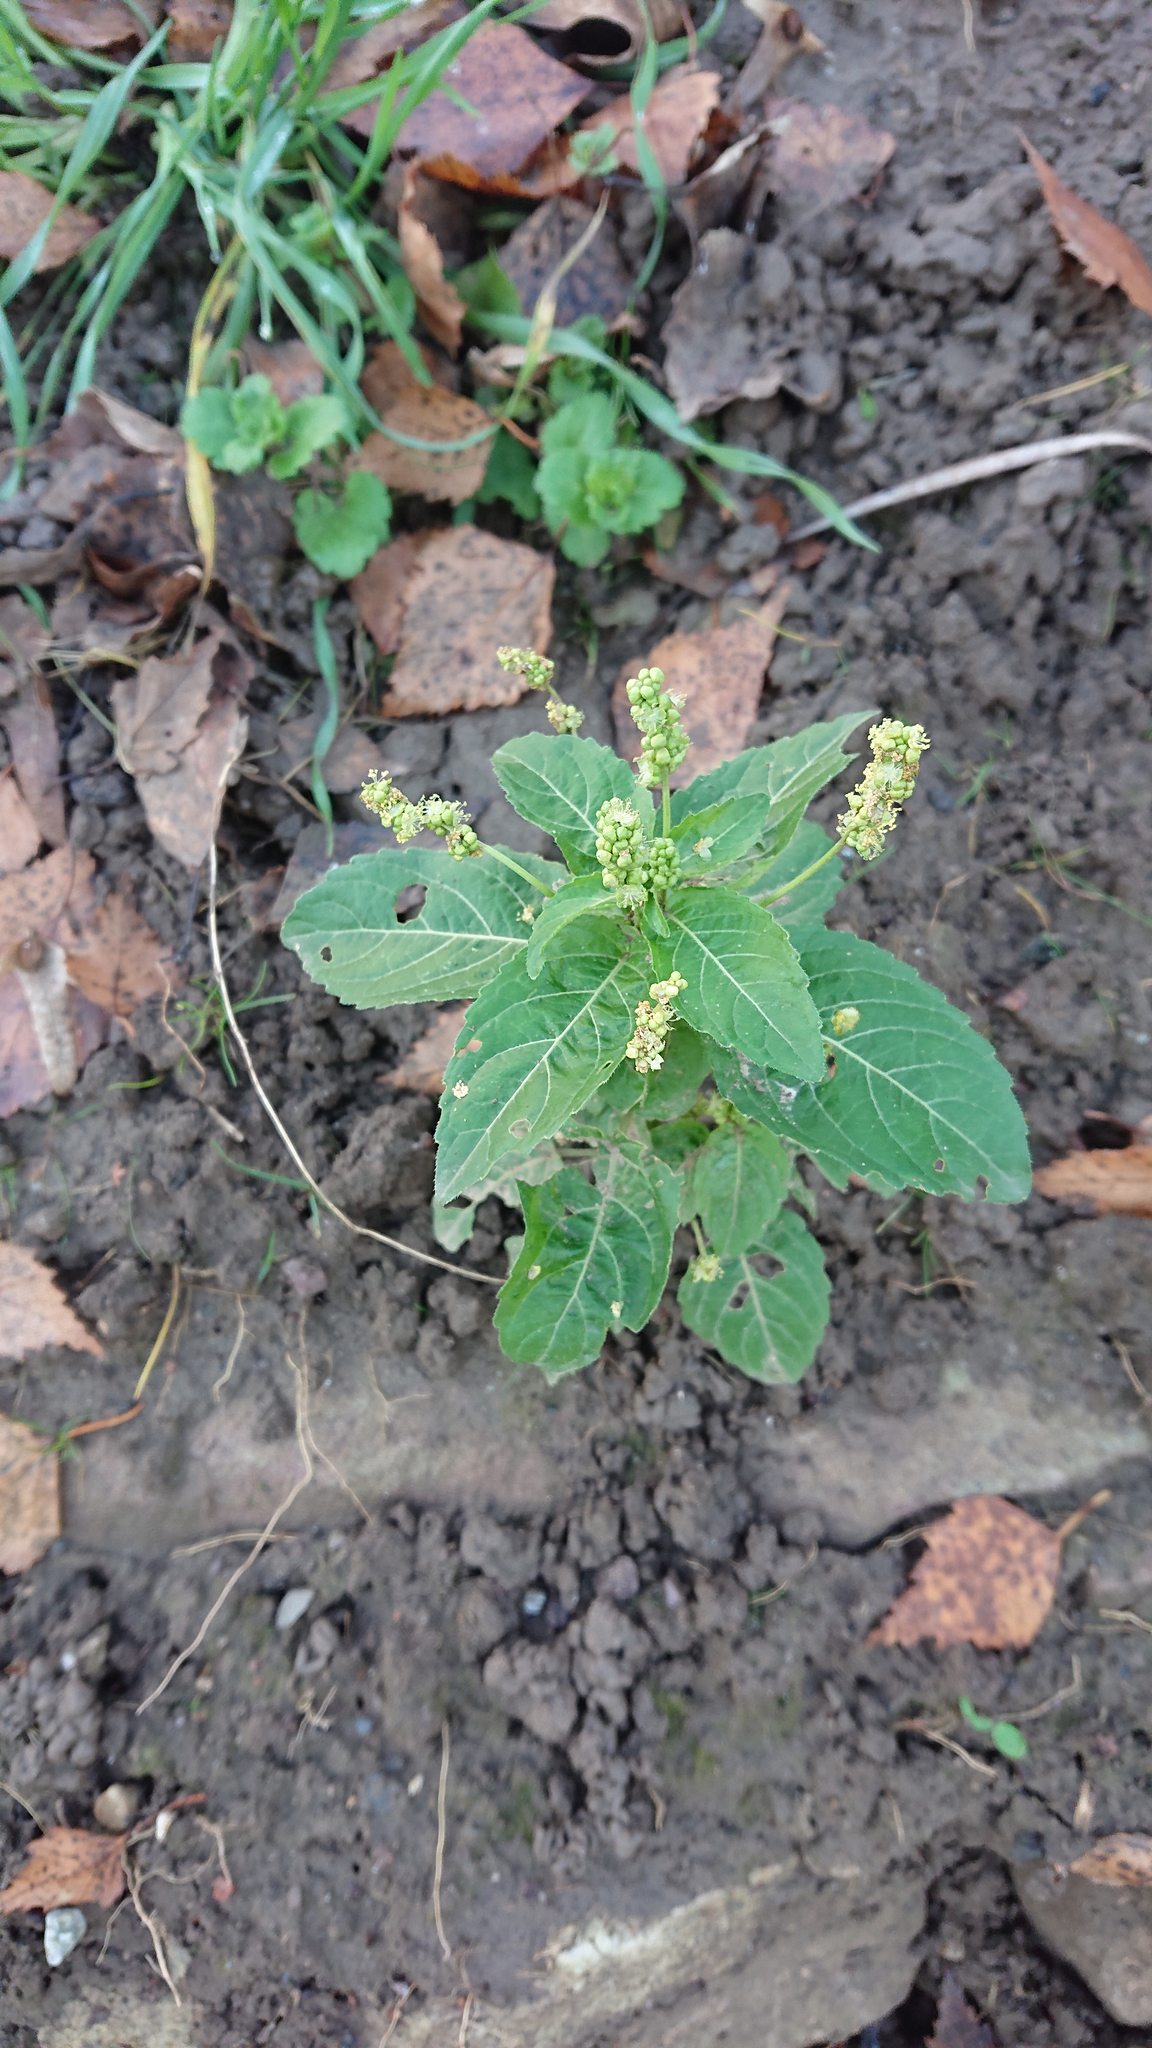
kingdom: Plantae
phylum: Tracheophyta
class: Magnoliopsida
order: Malpighiales
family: Euphorbiaceae
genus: Mercurialis
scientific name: Mercurialis annua
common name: Annual mercury
